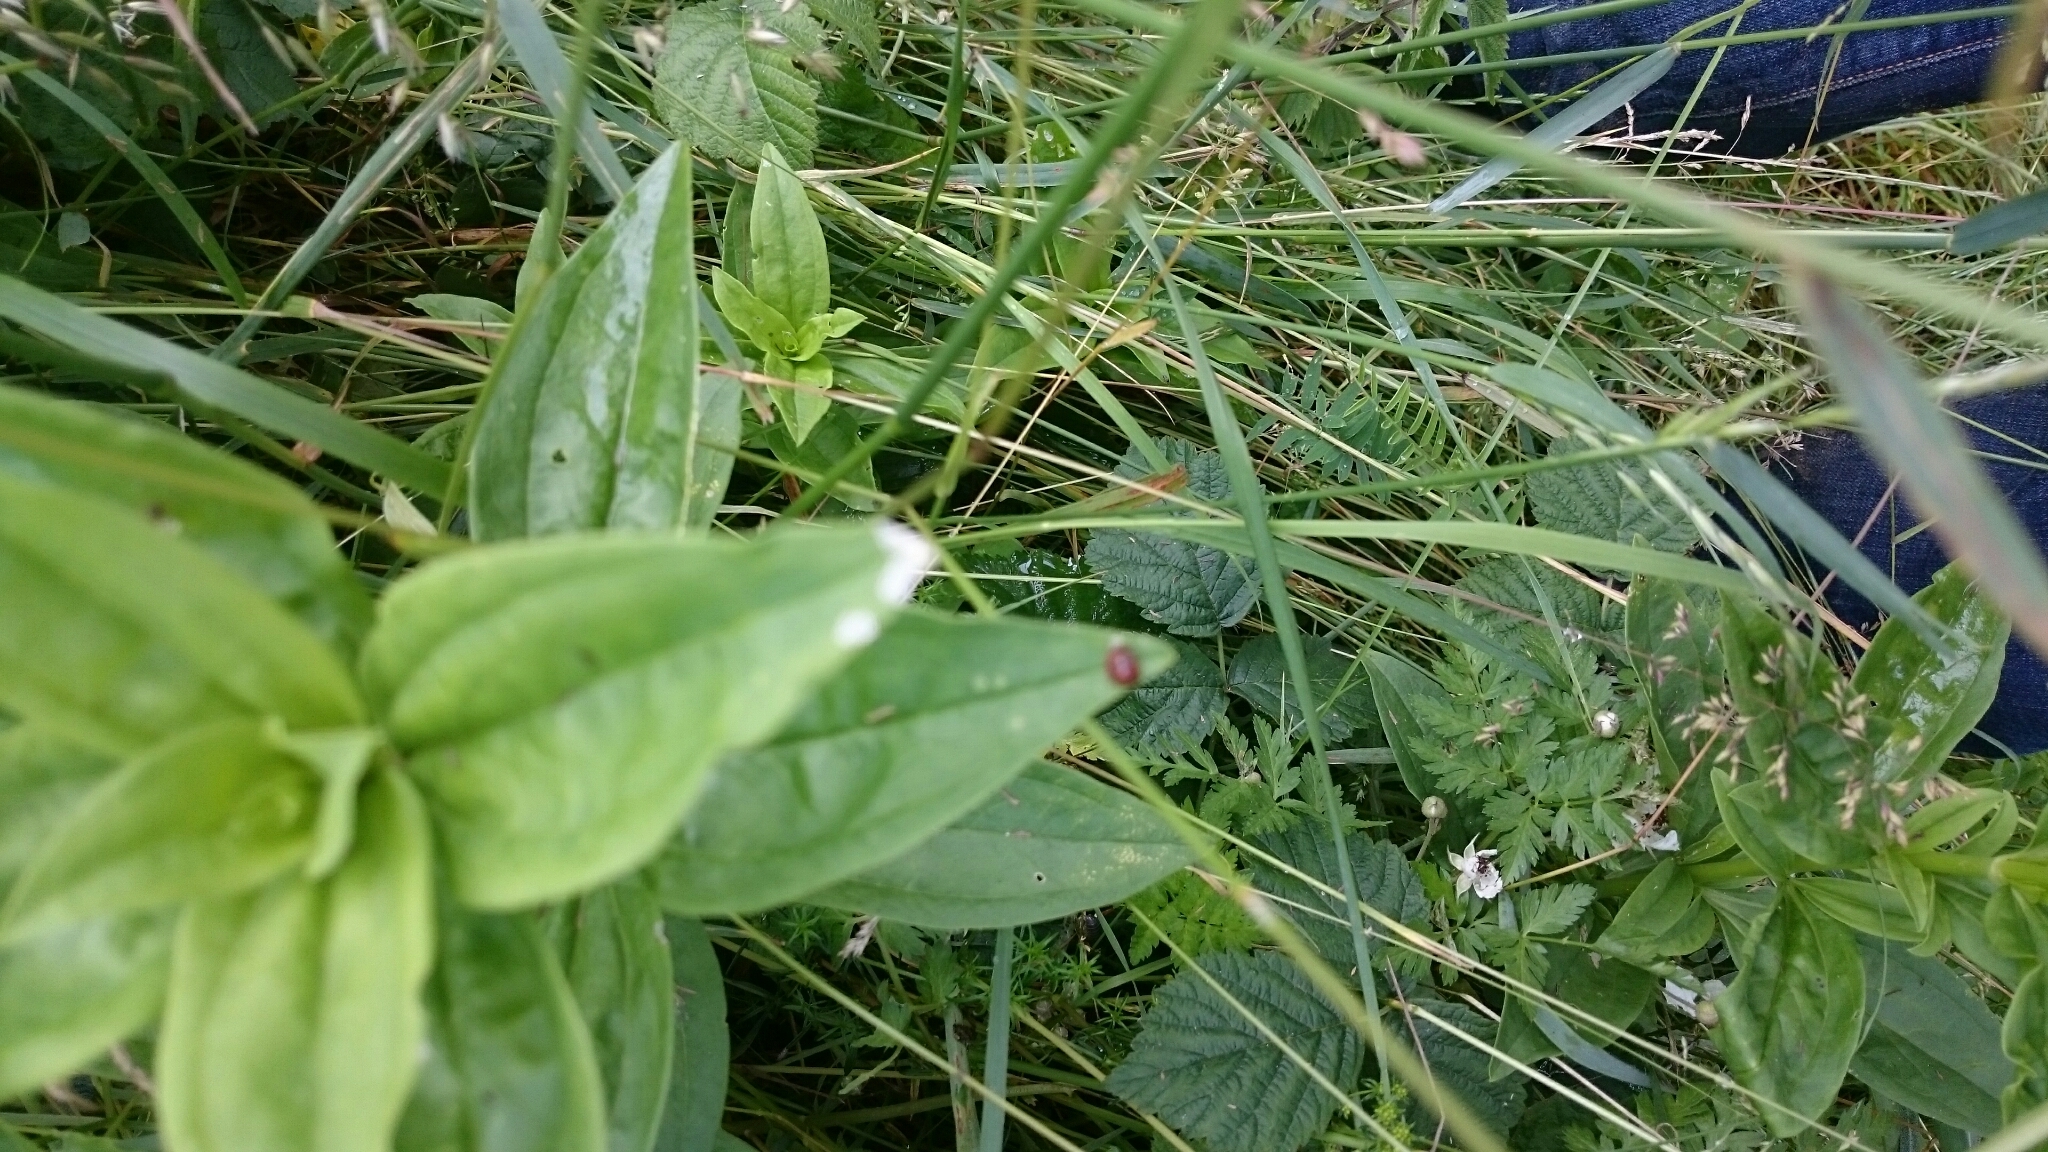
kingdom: Animalia
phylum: Arthropoda
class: Insecta
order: Coleoptera
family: Coccinellidae
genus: Subcoccinella
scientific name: Subcoccinella vigintiquatuorpunctata
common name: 24-spot ladybird
